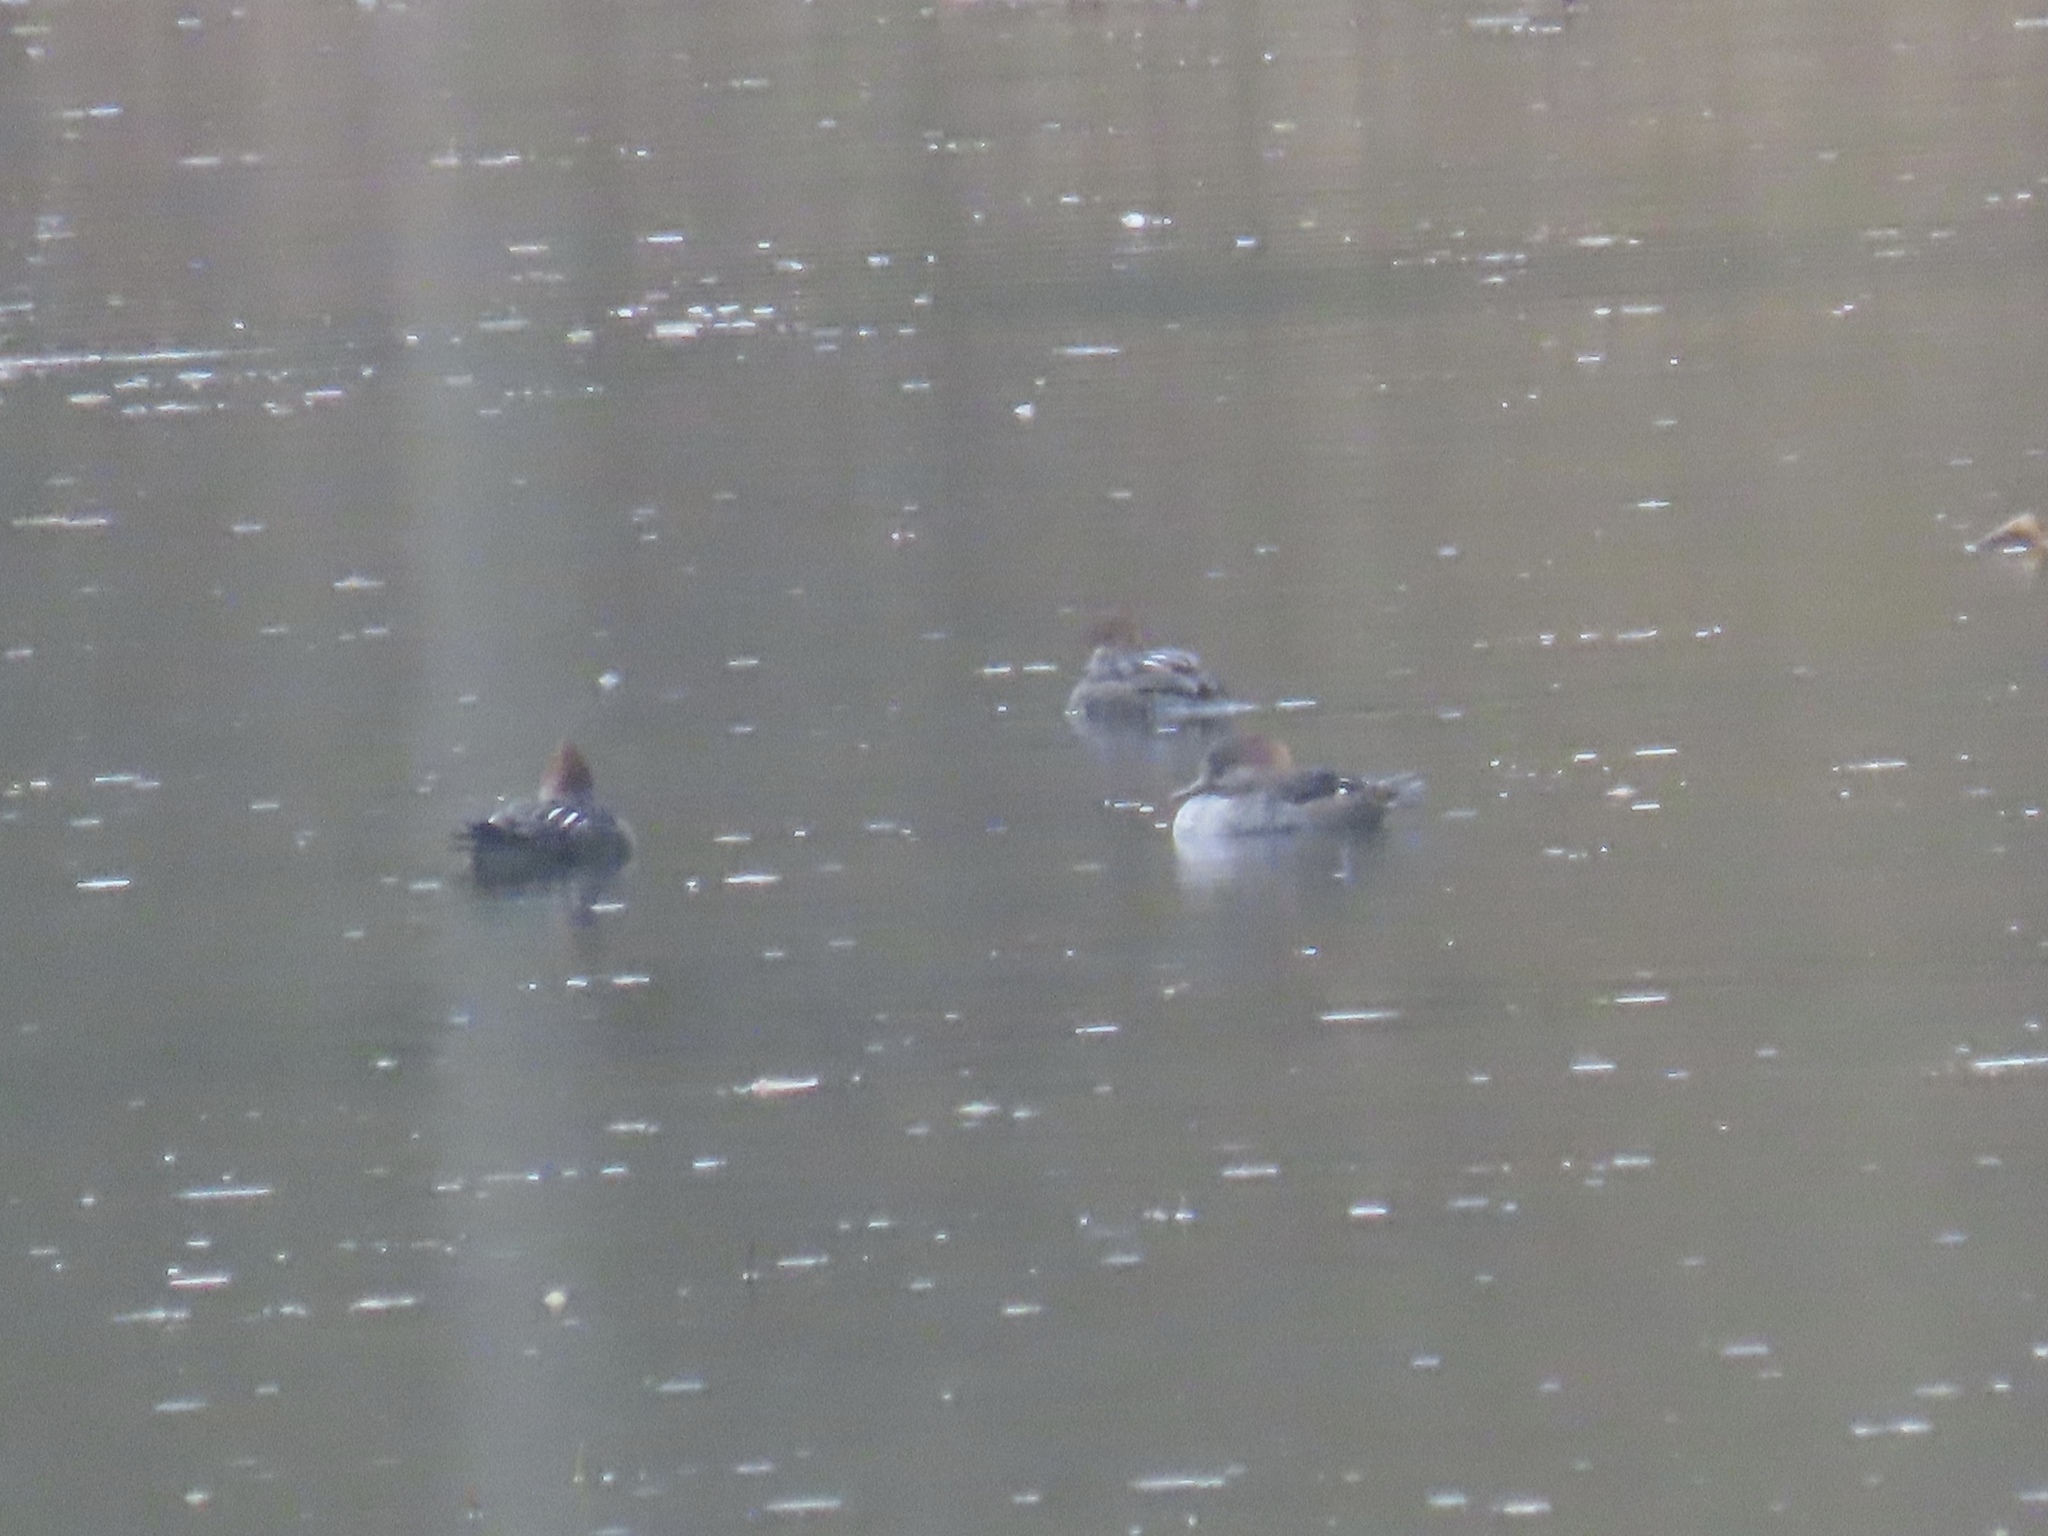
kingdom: Animalia
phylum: Chordata
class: Aves
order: Anseriformes
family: Anatidae
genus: Lophodytes
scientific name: Lophodytes cucullatus
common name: Hooded merganser
